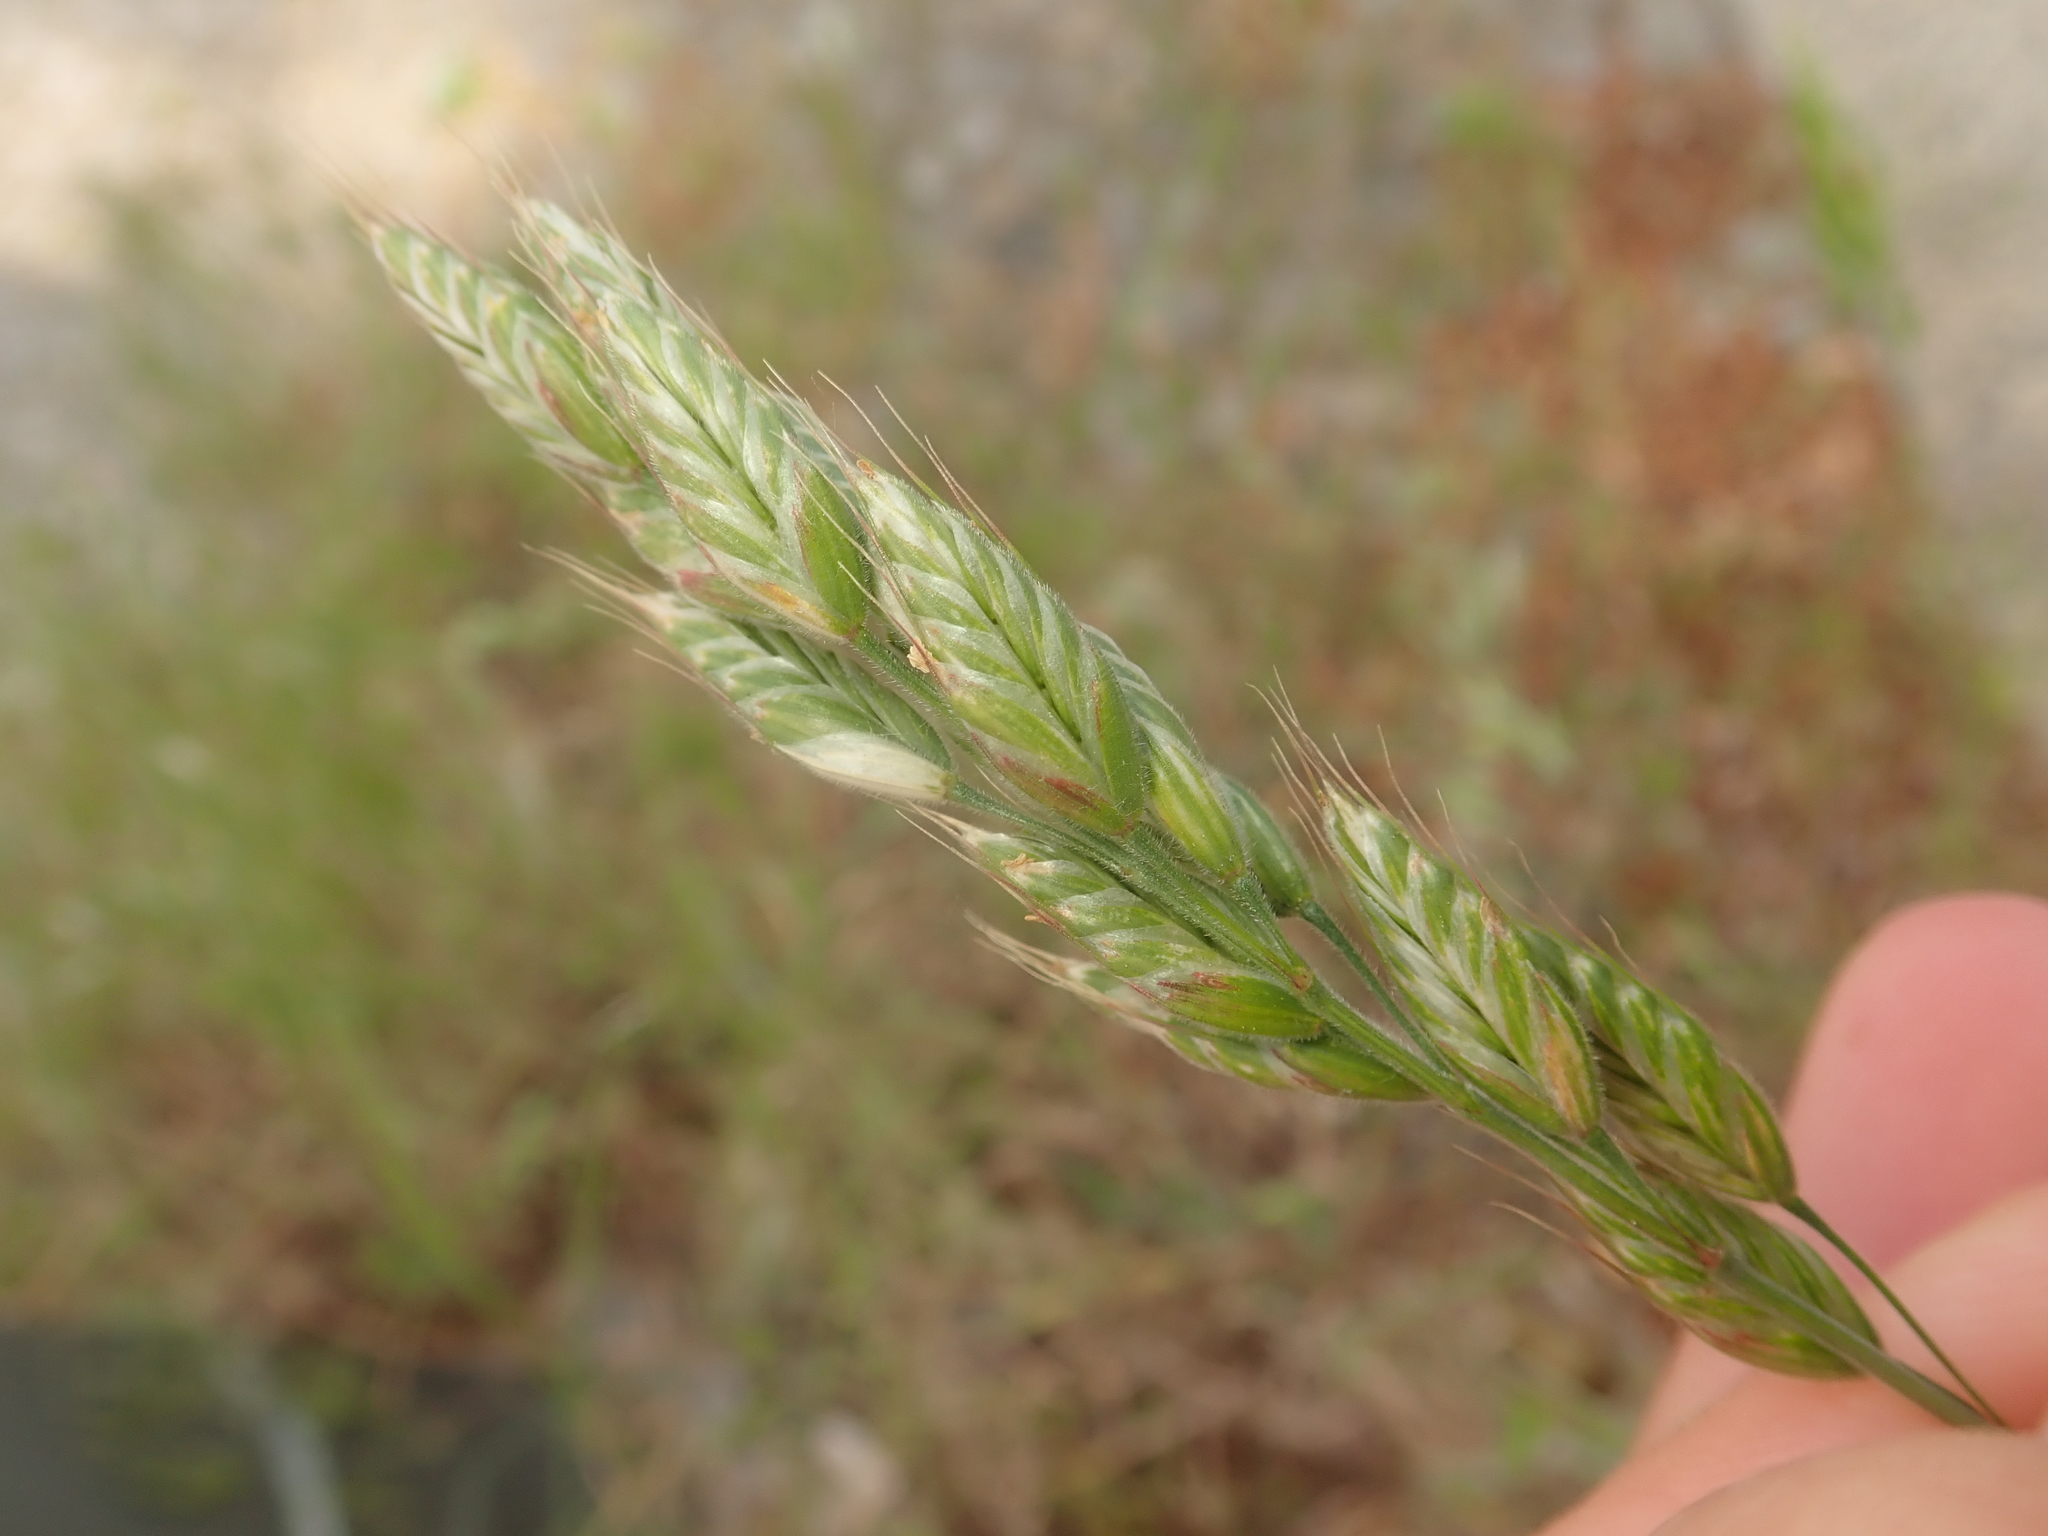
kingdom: Plantae
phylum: Tracheophyta
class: Liliopsida
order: Poales
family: Poaceae
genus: Bromus
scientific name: Bromus hordeaceus
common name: Soft brome
